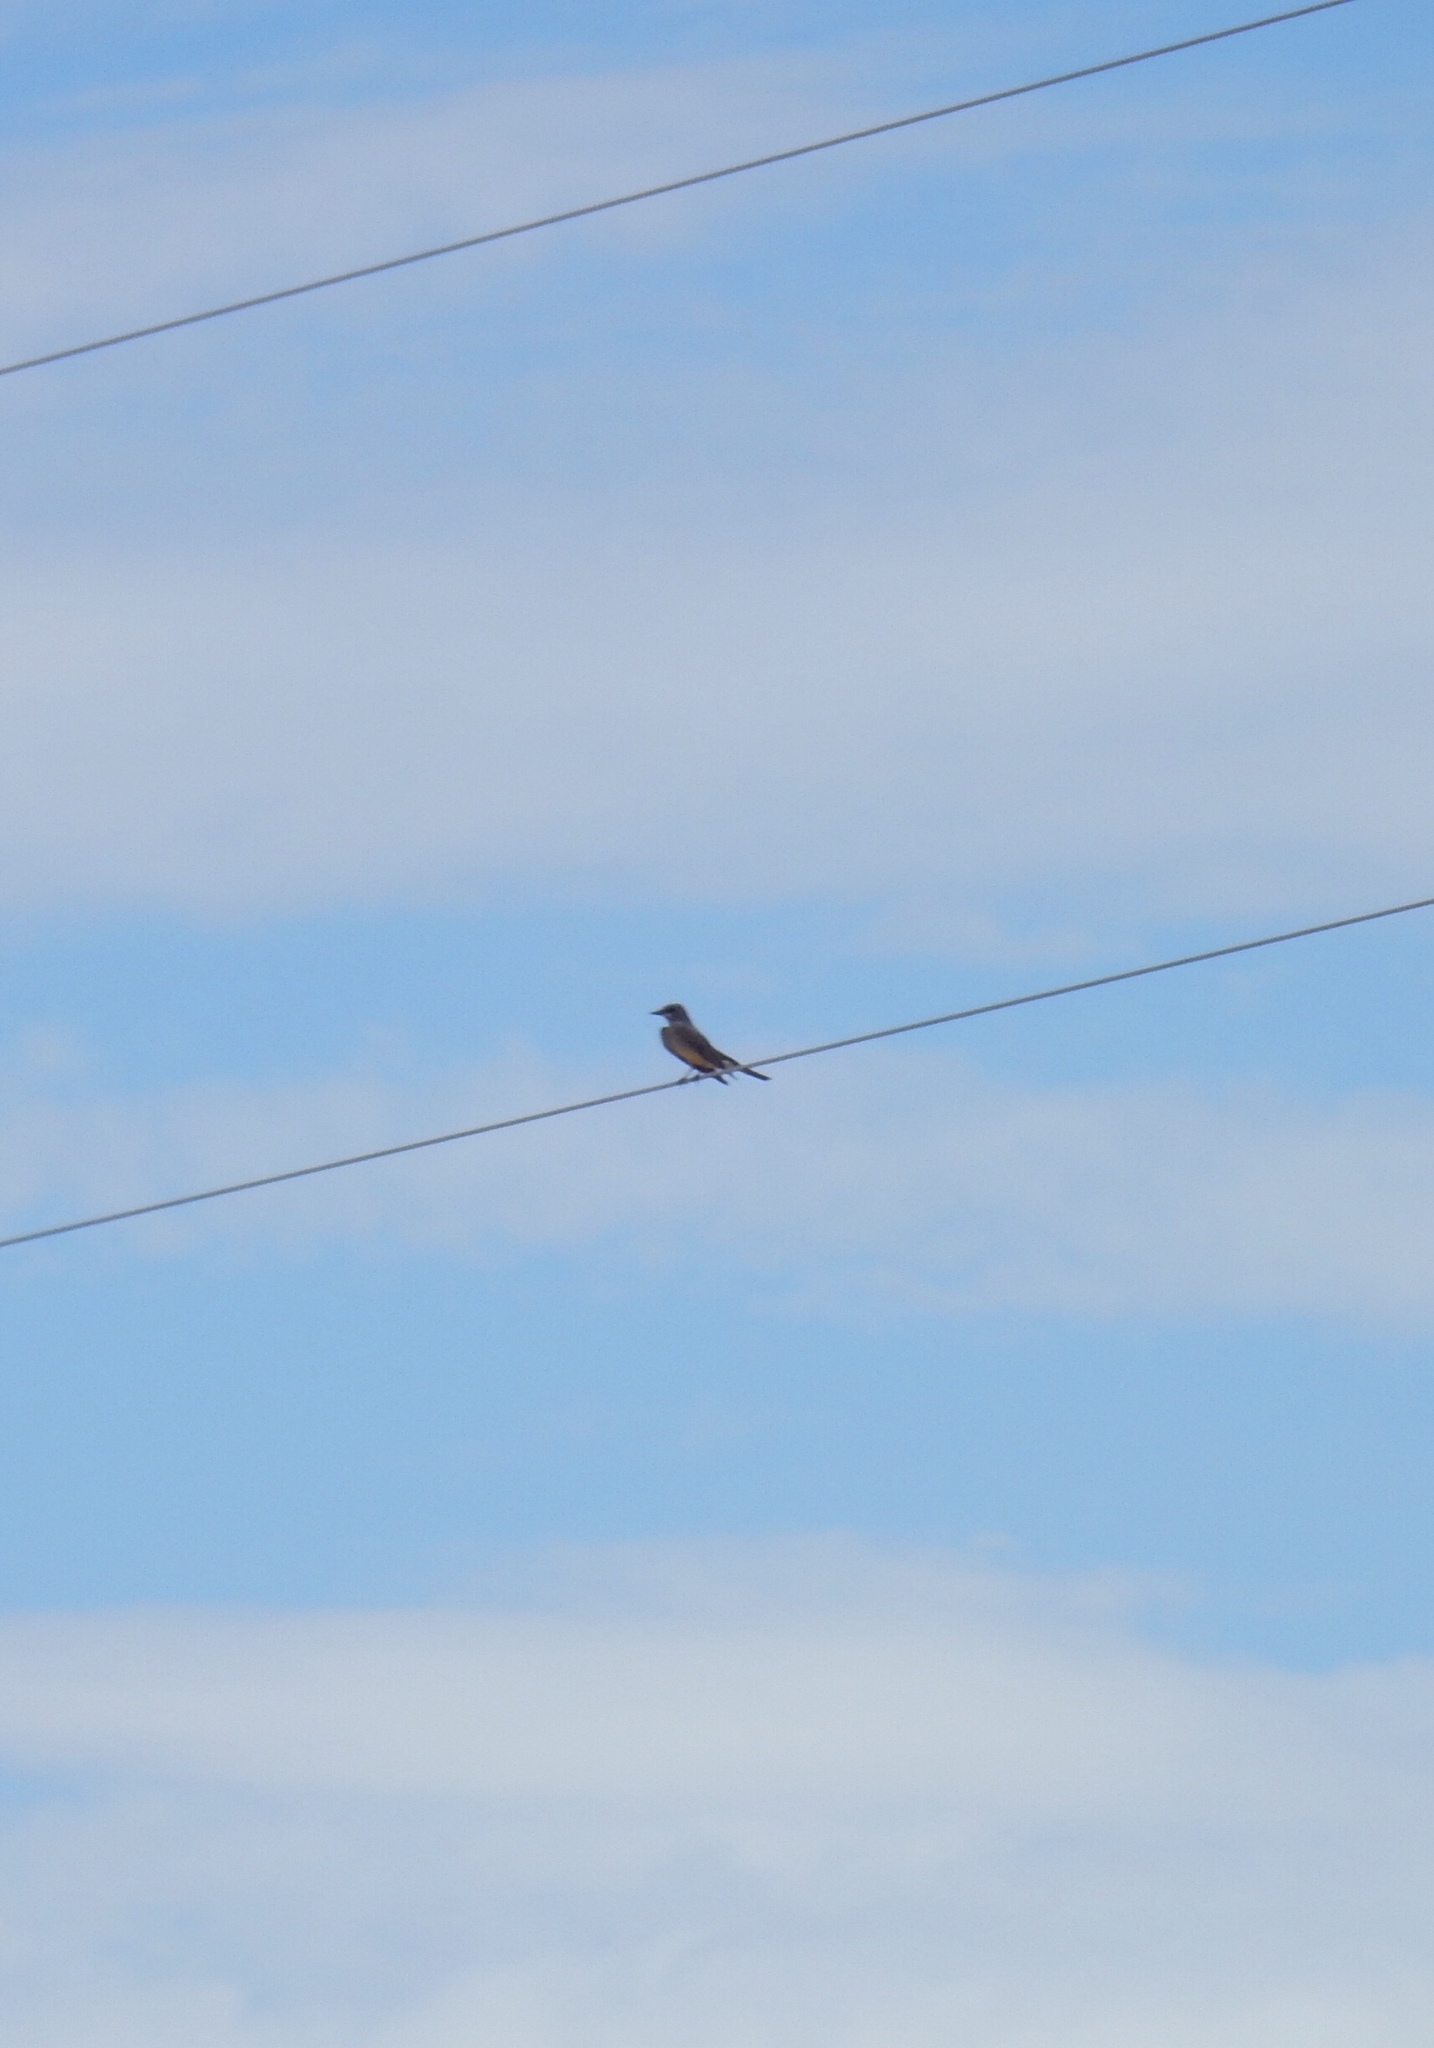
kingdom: Animalia
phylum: Chordata
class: Aves
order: Passeriformes
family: Tyrannidae
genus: Tyrannus
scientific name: Tyrannus vociferans
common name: Cassin's kingbird
